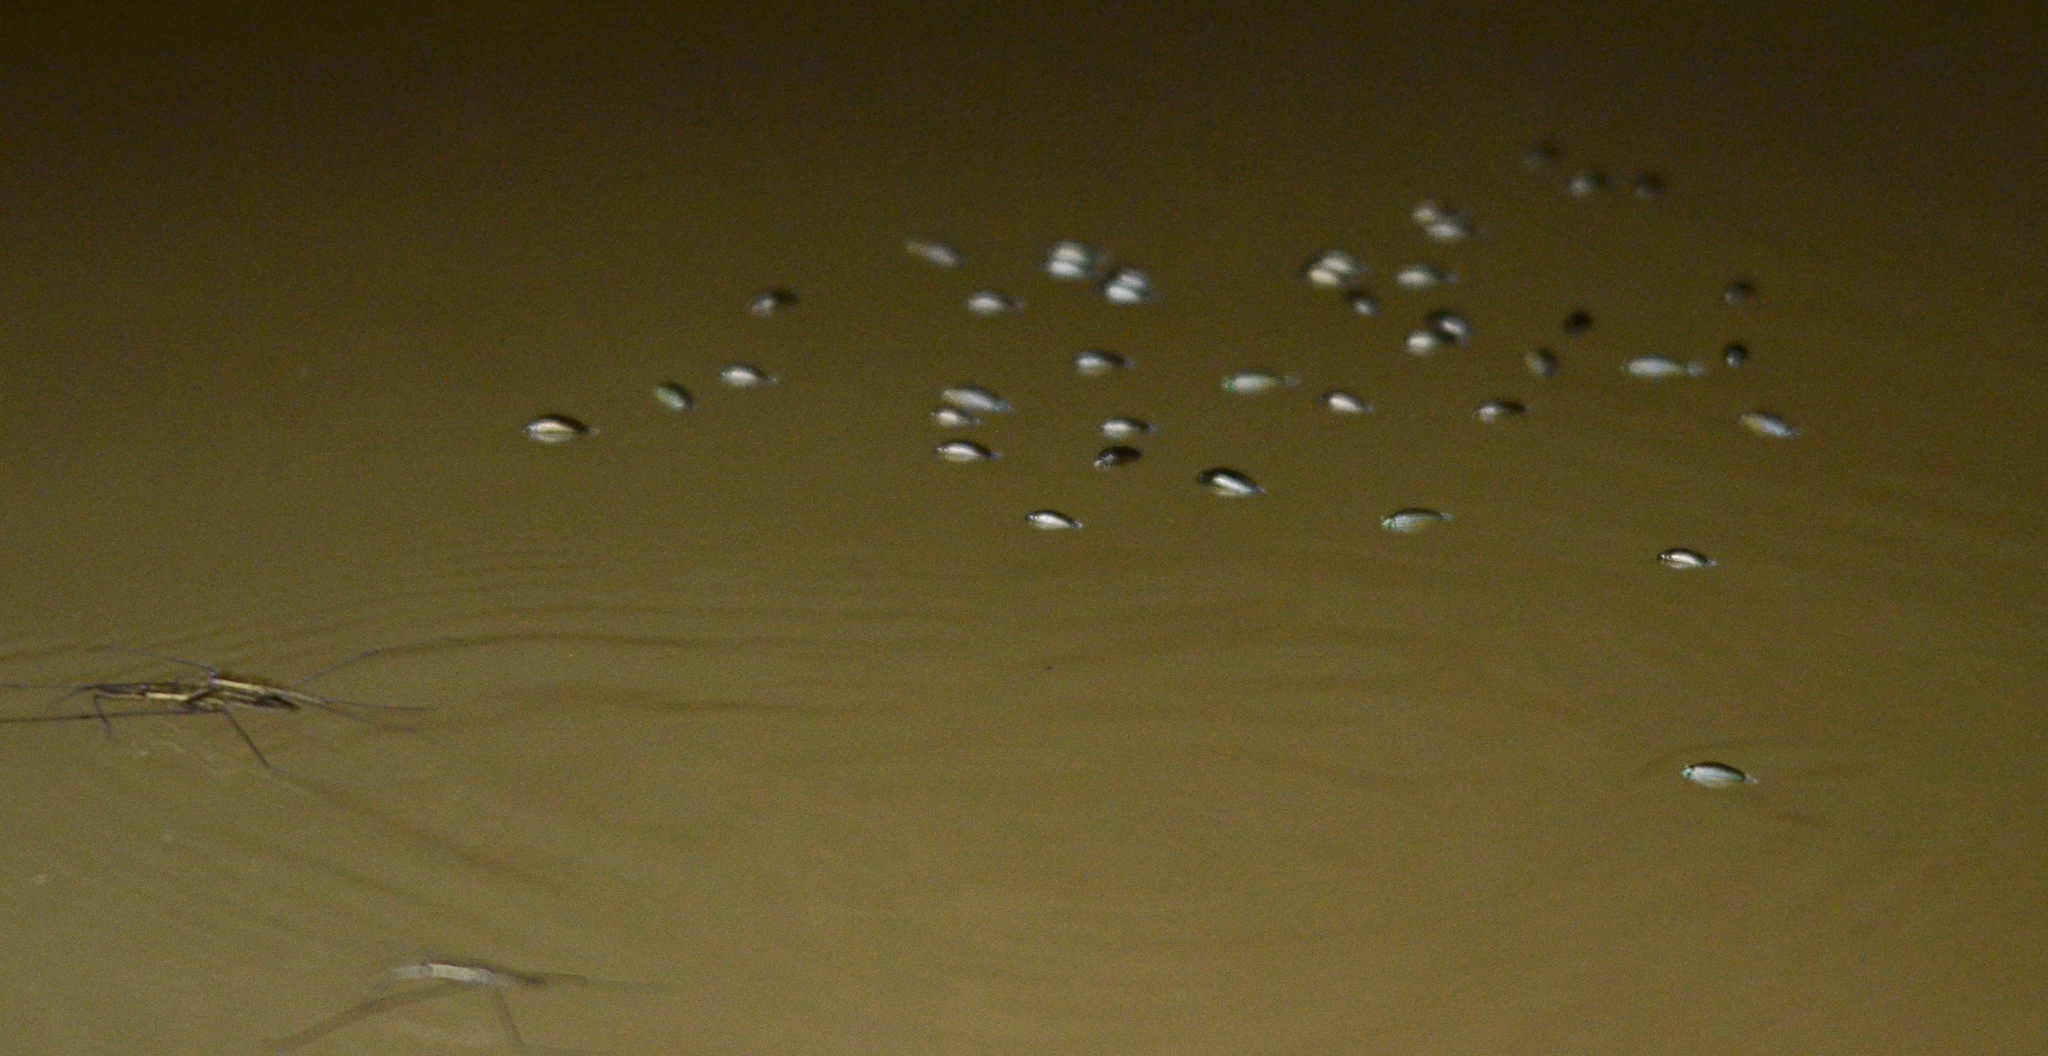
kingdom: Animalia
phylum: Arthropoda
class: Insecta
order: Coleoptera
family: Gyrinidae
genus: Gyrinus
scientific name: Gyrinus
